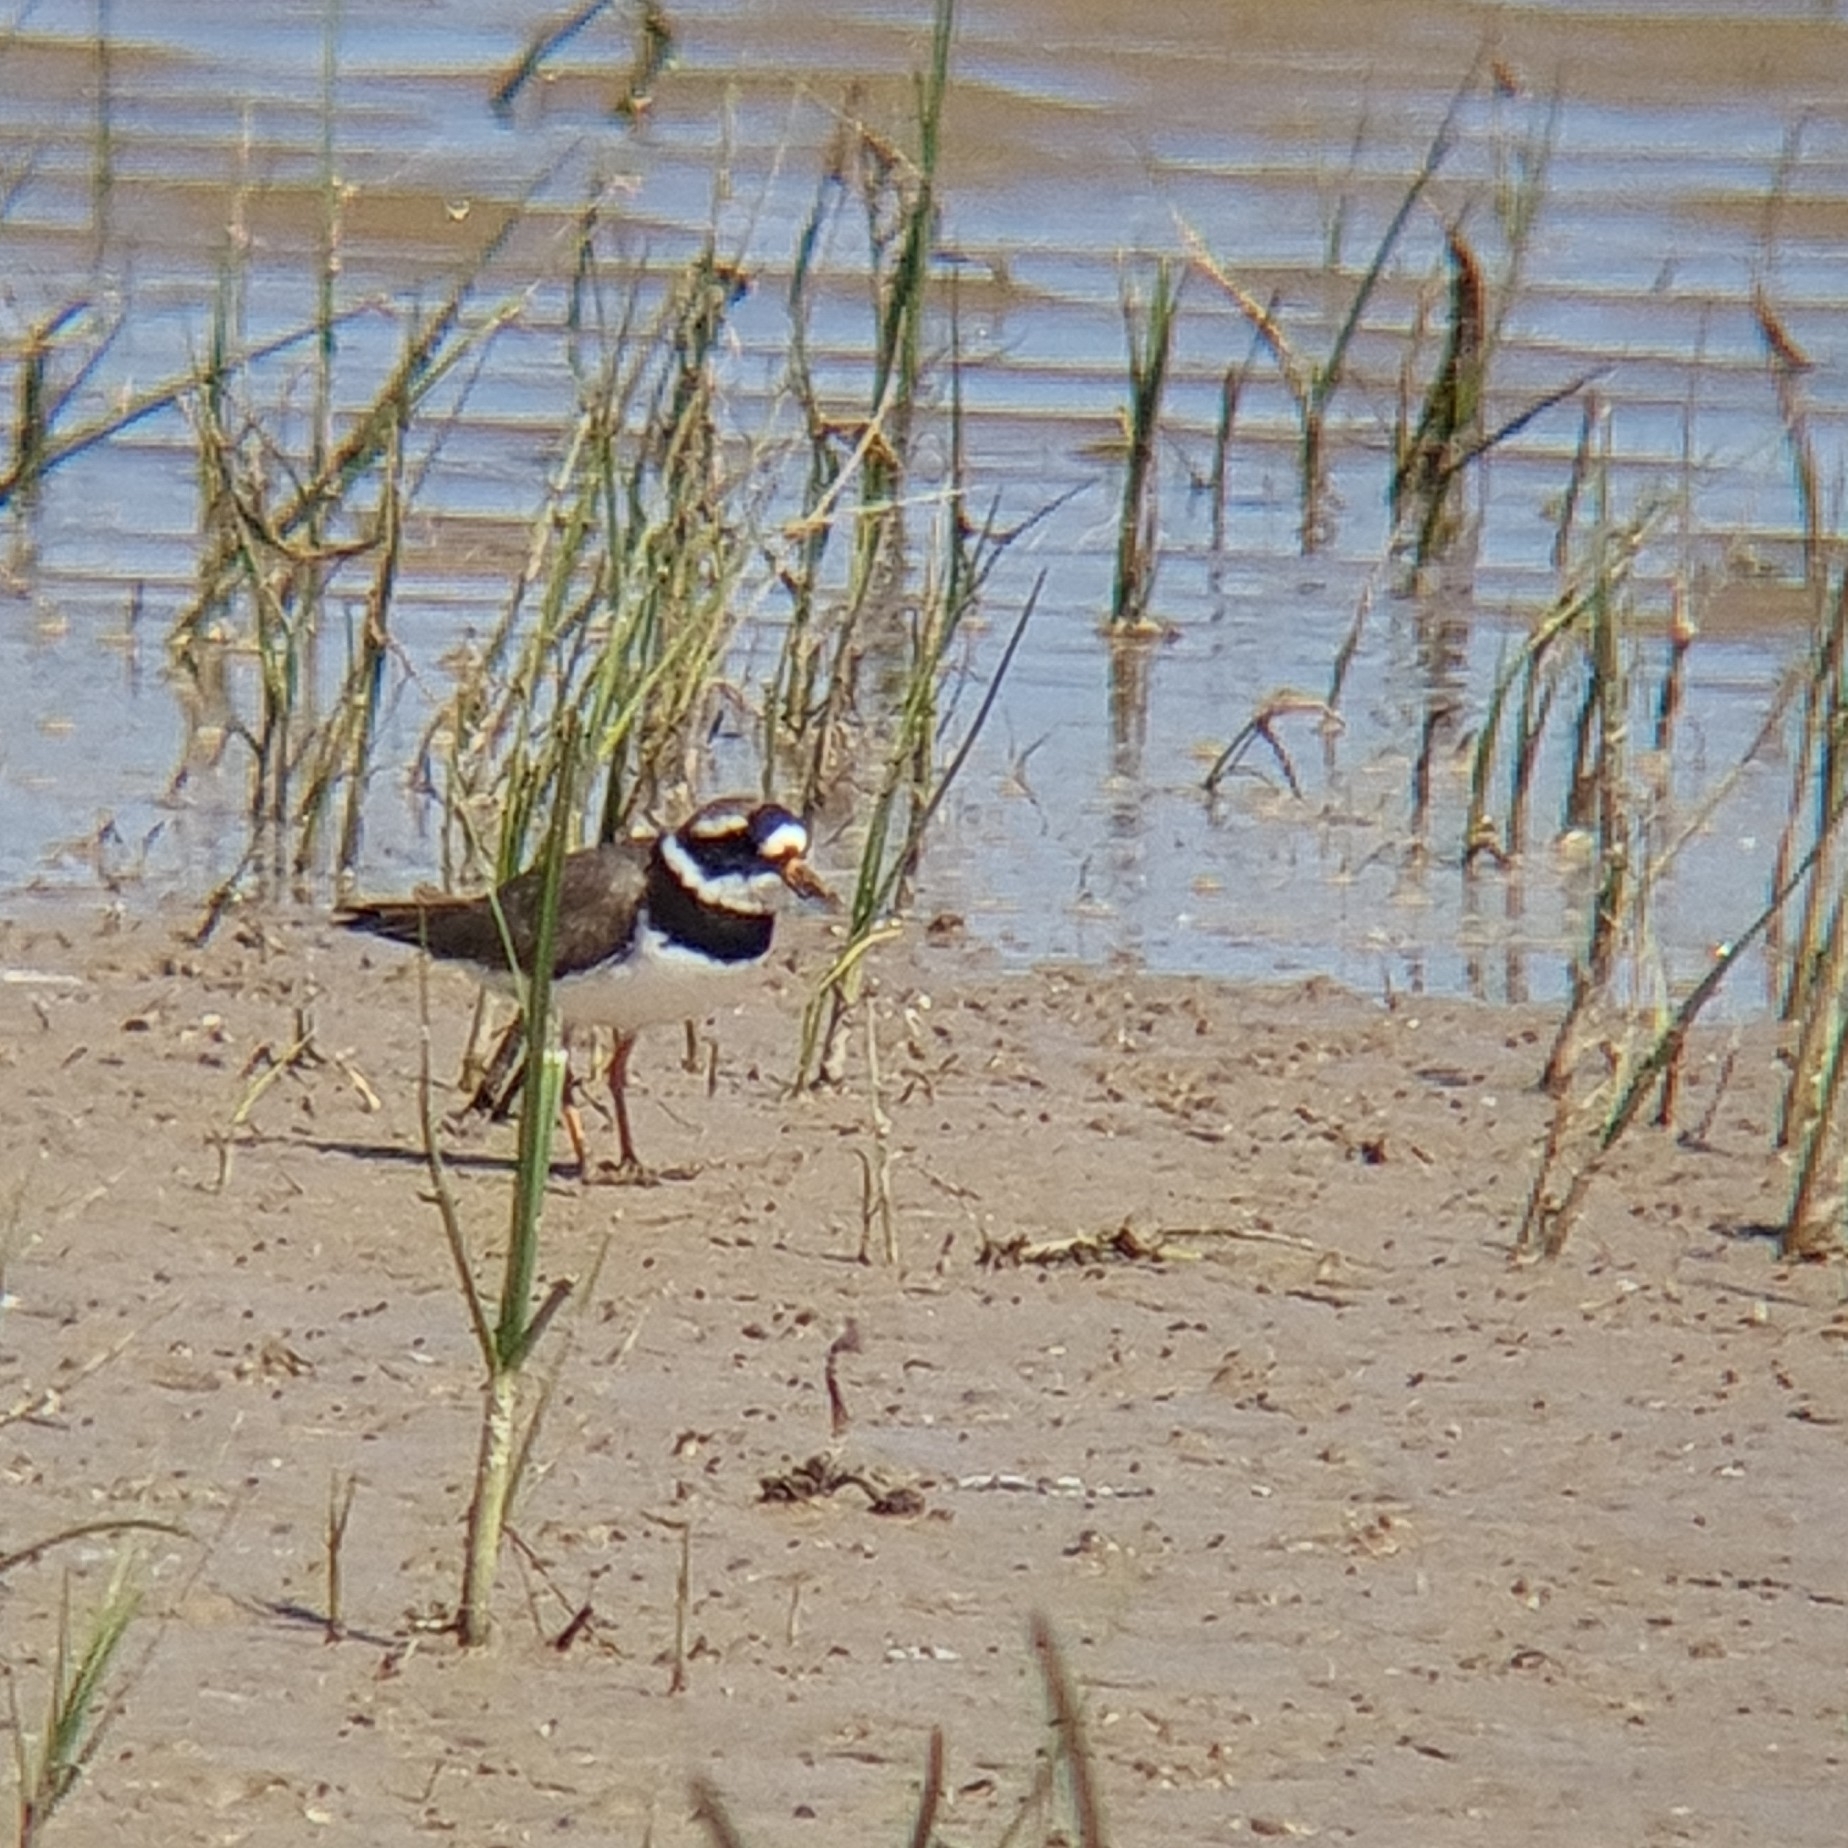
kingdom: Animalia
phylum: Chordata
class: Aves
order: Charadriiformes
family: Charadriidae
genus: Charadrius
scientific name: Charadrius hiaticula
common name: Common ringed plover
